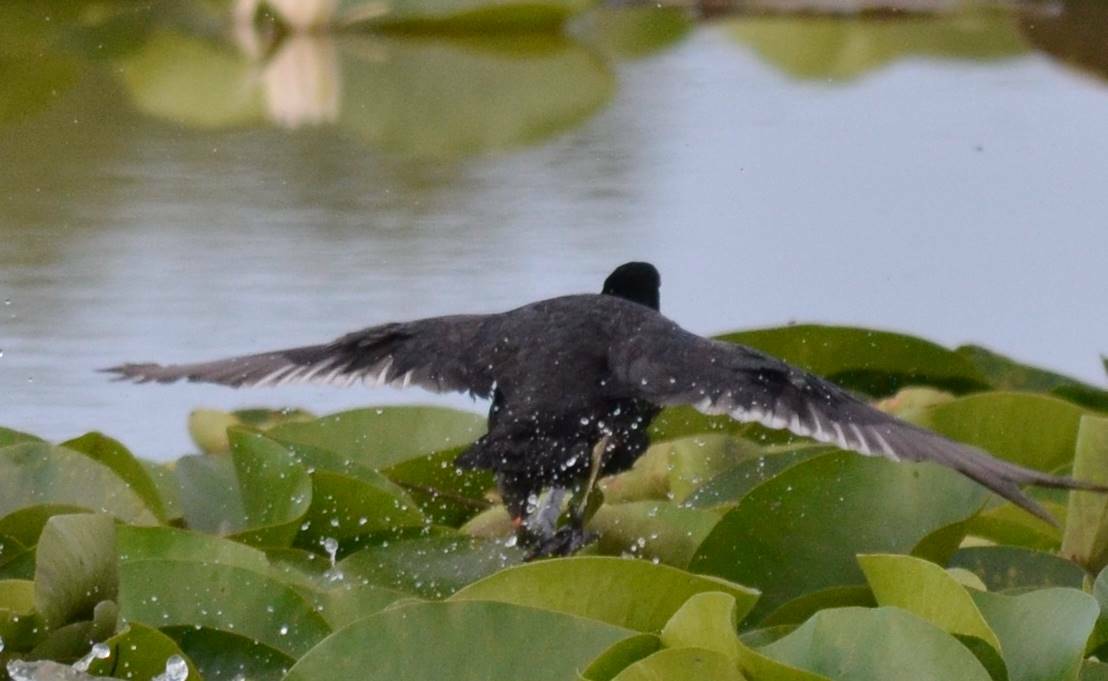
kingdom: Animalia
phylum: Chordata
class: Aves
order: Gruiformes
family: Rallidae
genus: Gallinula
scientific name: Gallinula chloropus
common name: Common moorhen
